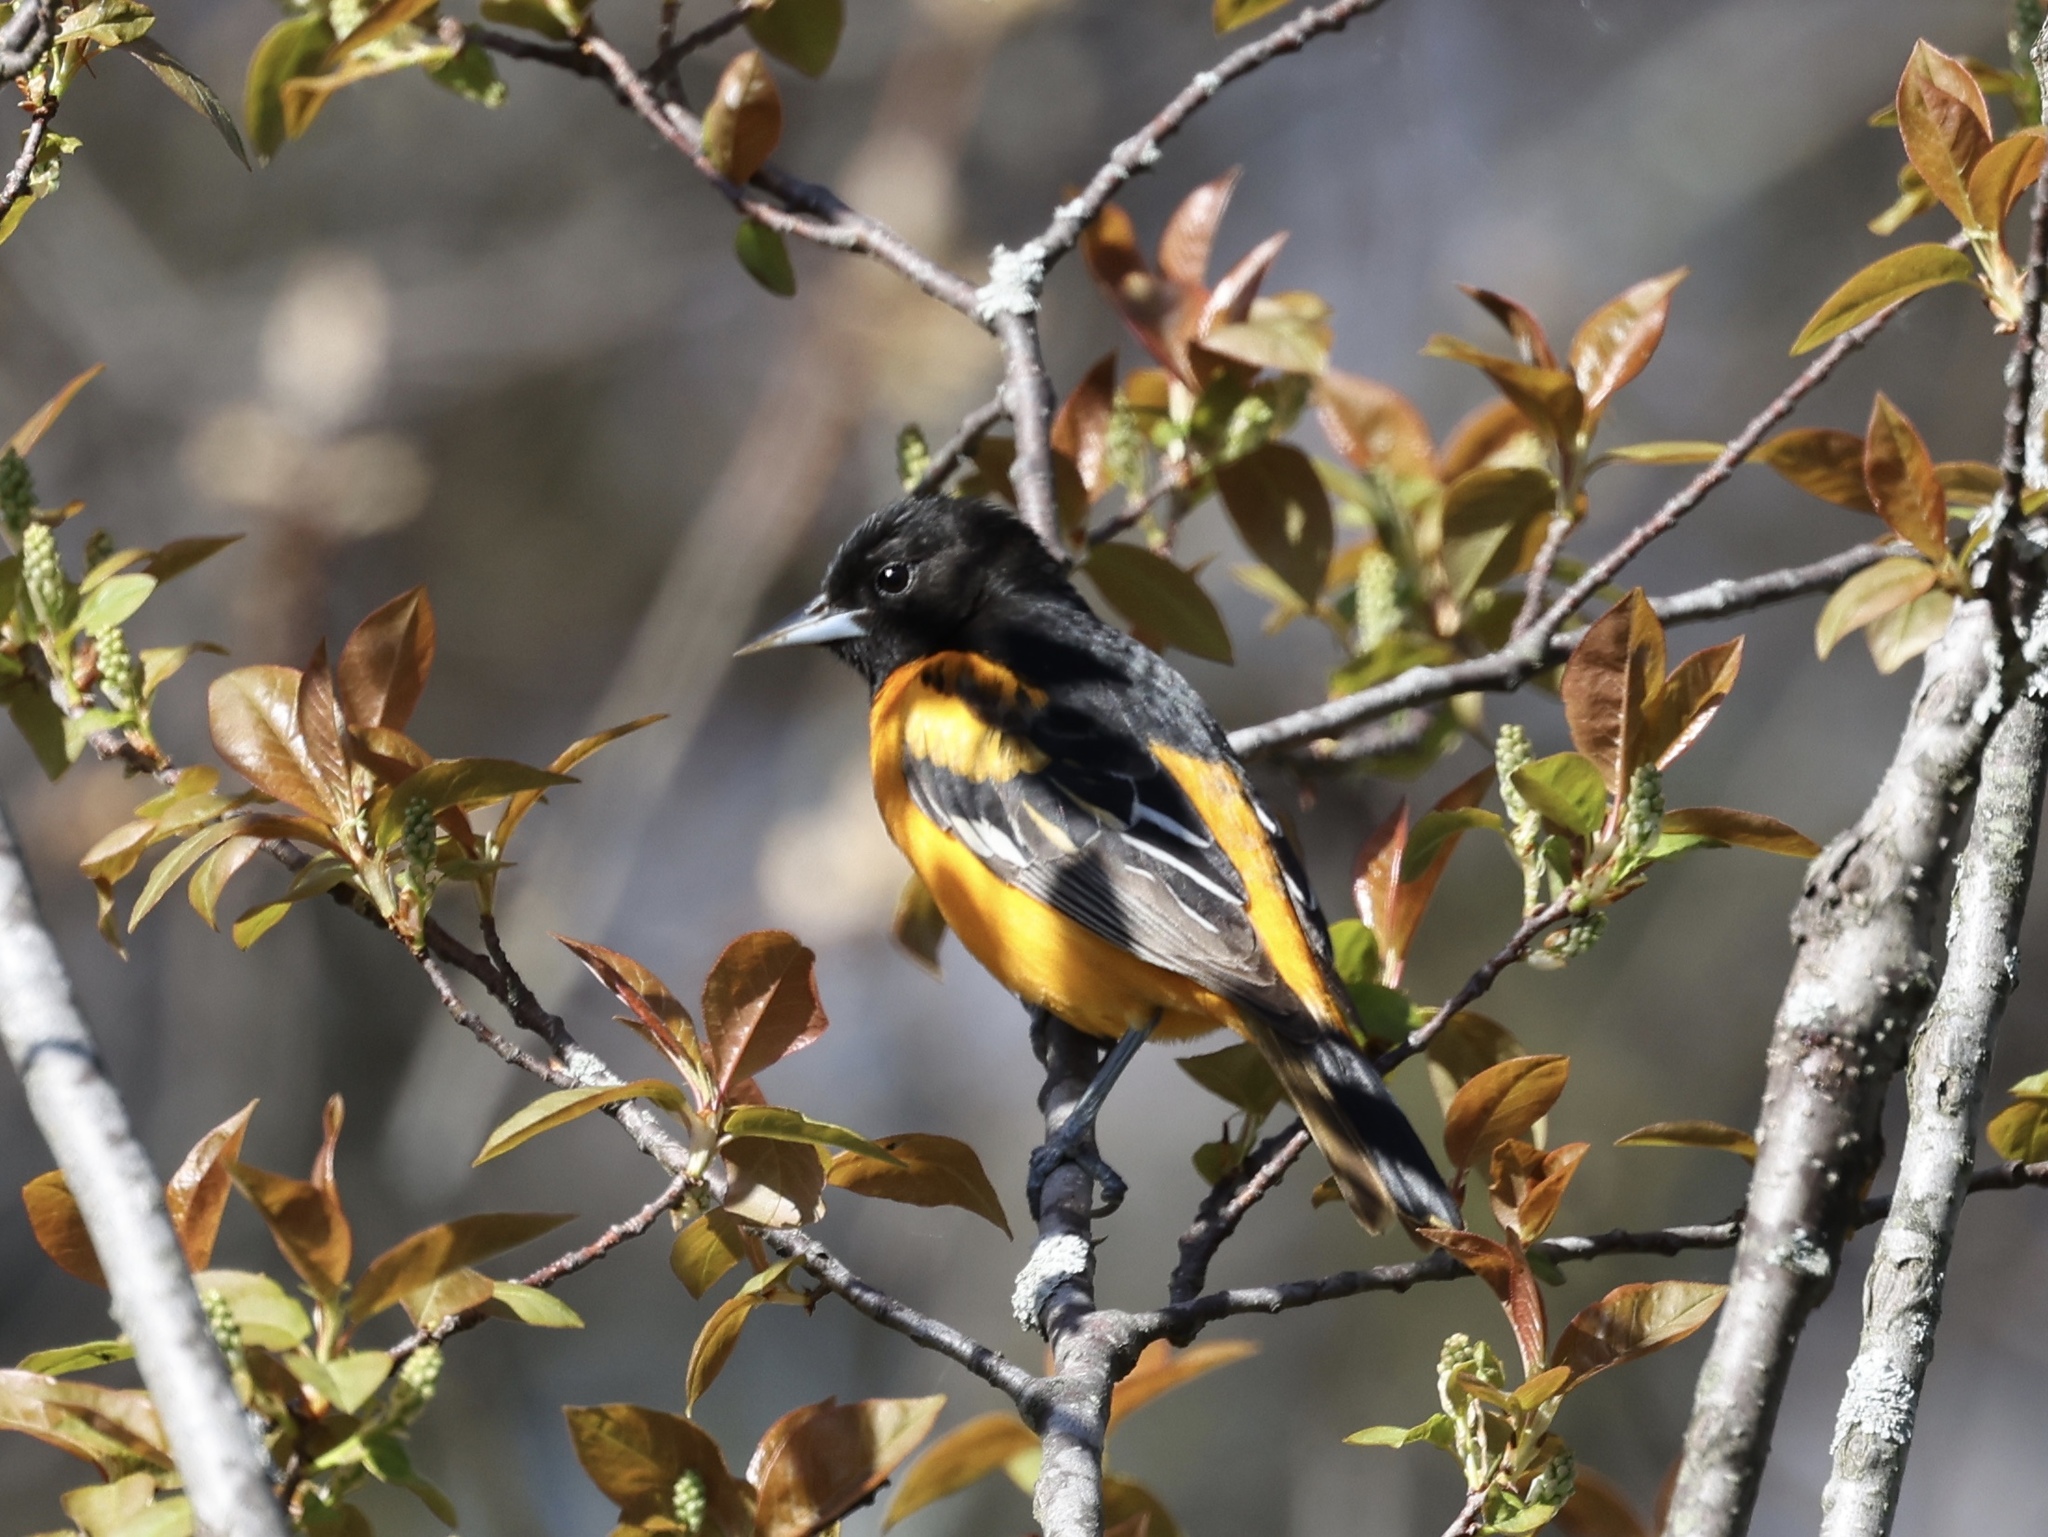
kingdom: Animalia
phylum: Chordata
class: Aves
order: Passeriformes
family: Icteridae
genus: Icterus
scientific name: Icterus galbula
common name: Baltimore oriole
